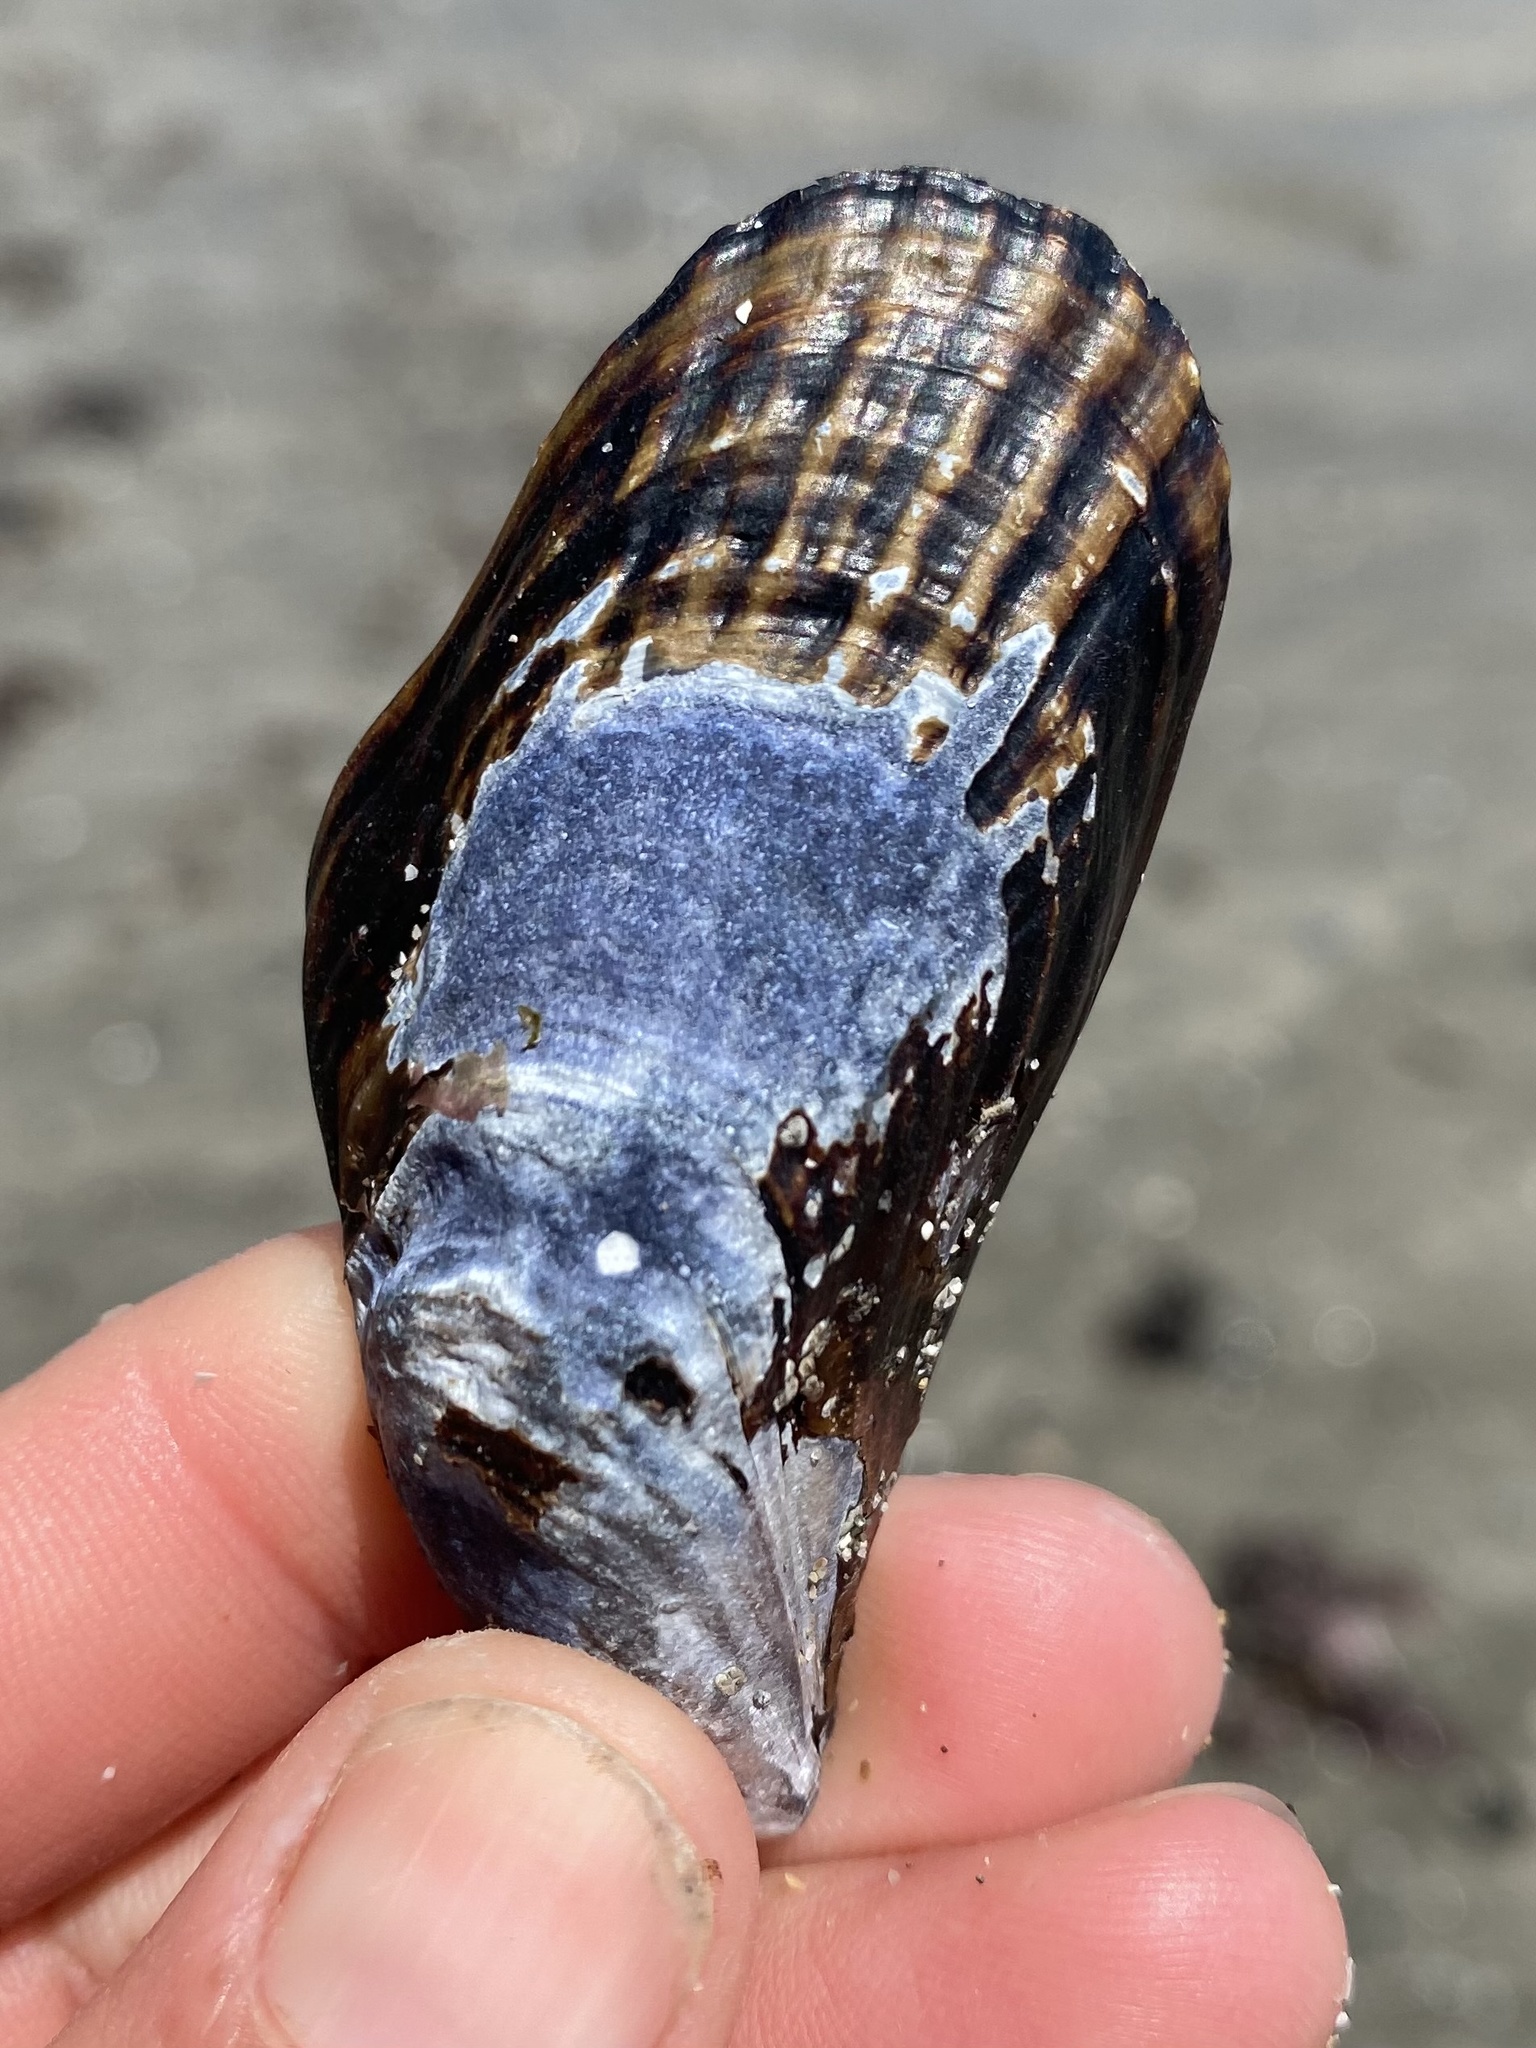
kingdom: Animalia
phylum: Mollusca
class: Bivalvia
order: Mytilida
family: Mytilidae
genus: Mytilus
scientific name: Mytilus californianus
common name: California mussel
